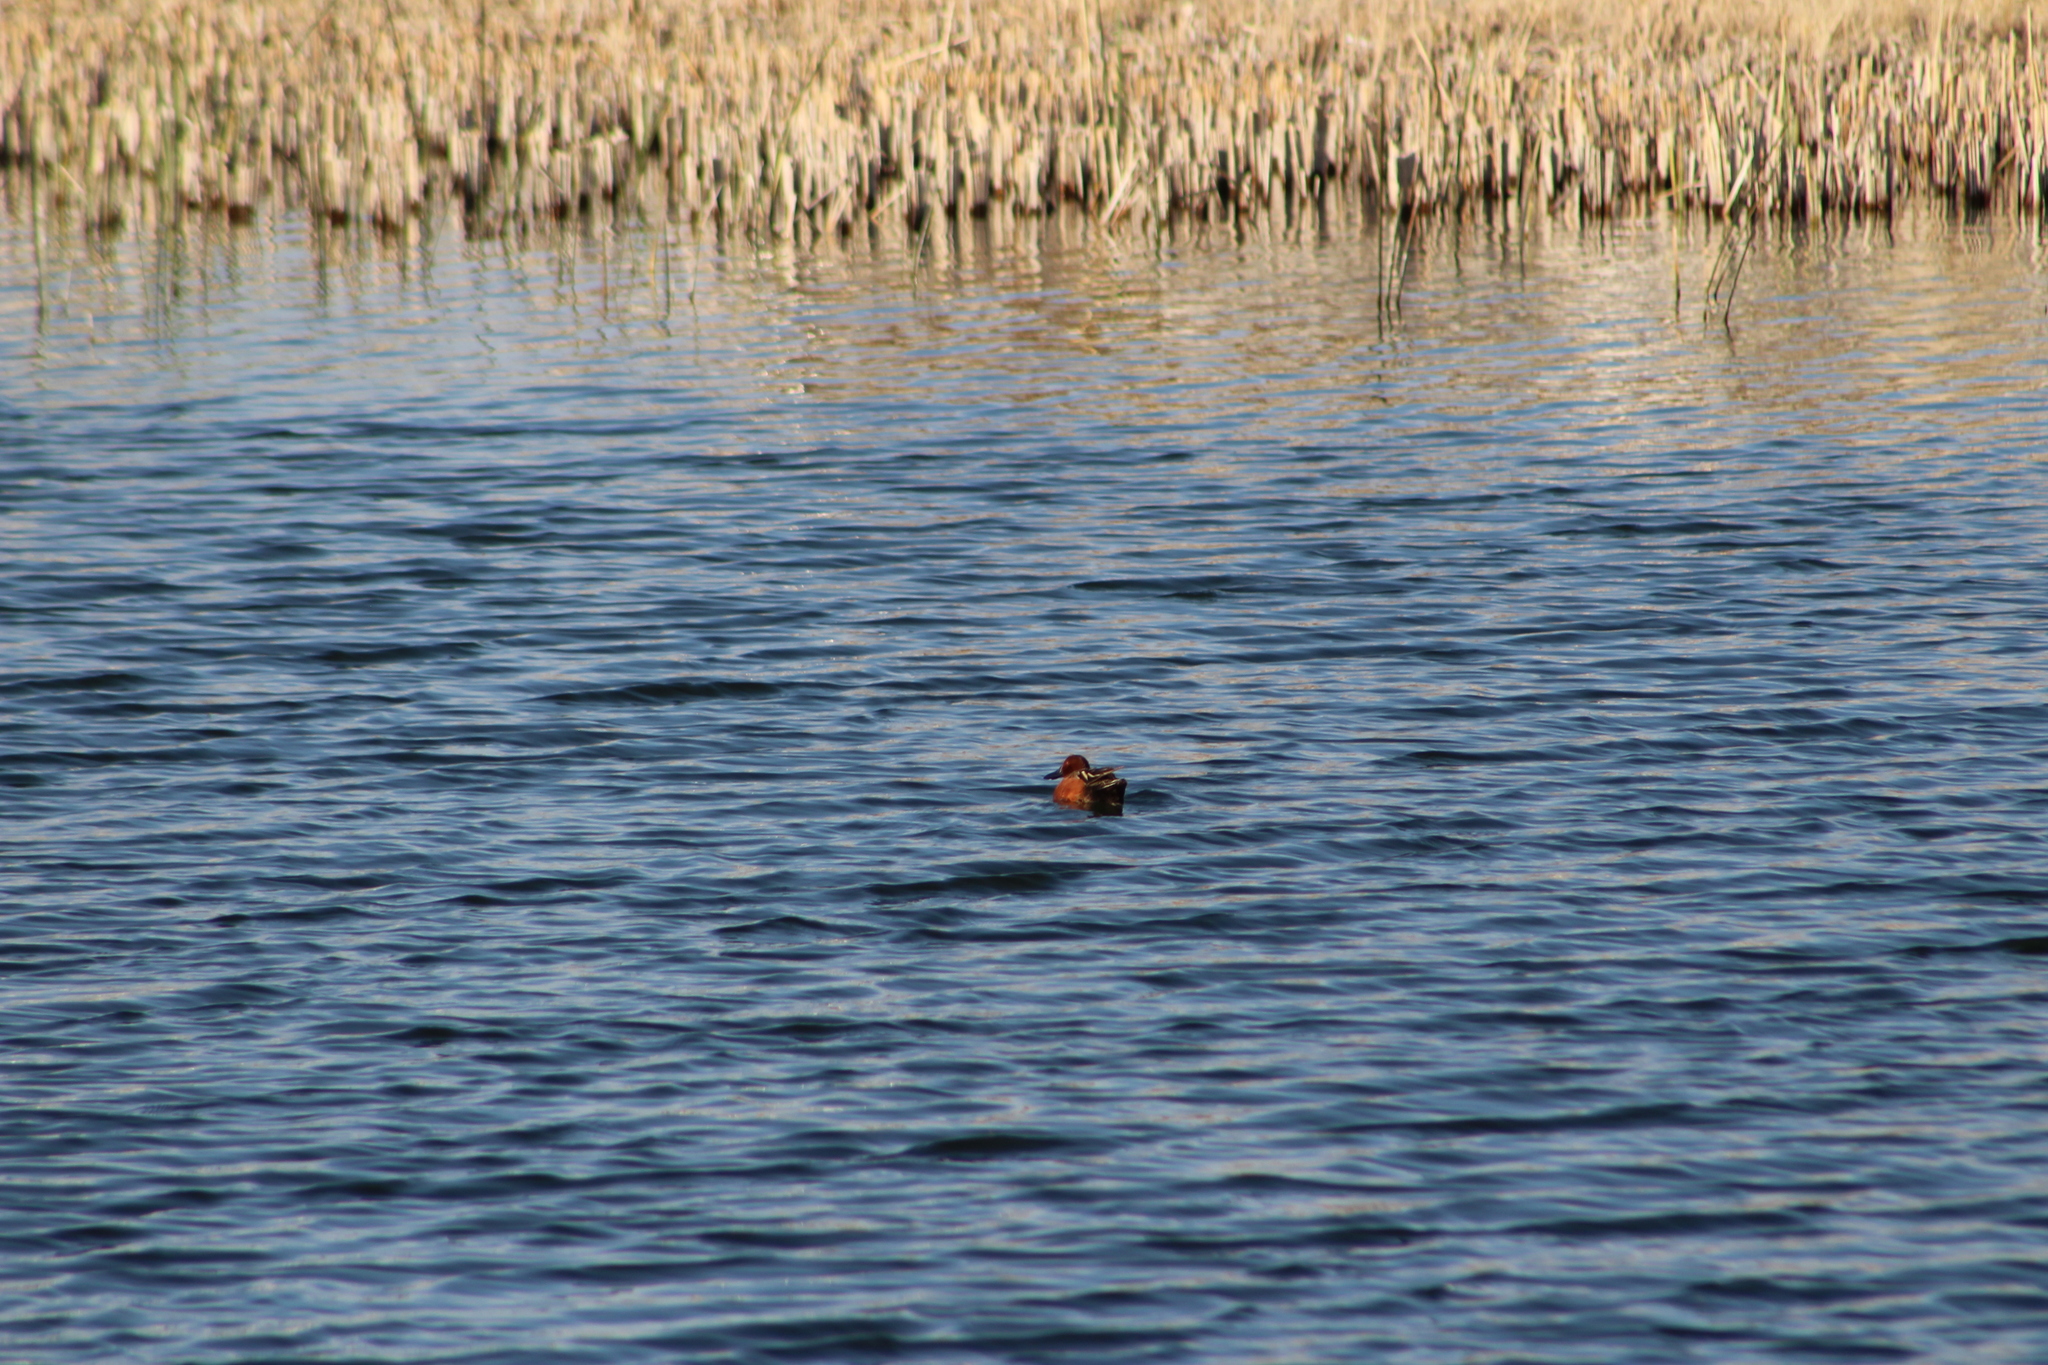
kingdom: Animalia
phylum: Chordata
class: Aves
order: Anseriformes
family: Anatidae
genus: Spatula
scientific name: Spatula cyanoptera
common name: Cinnamon teal
